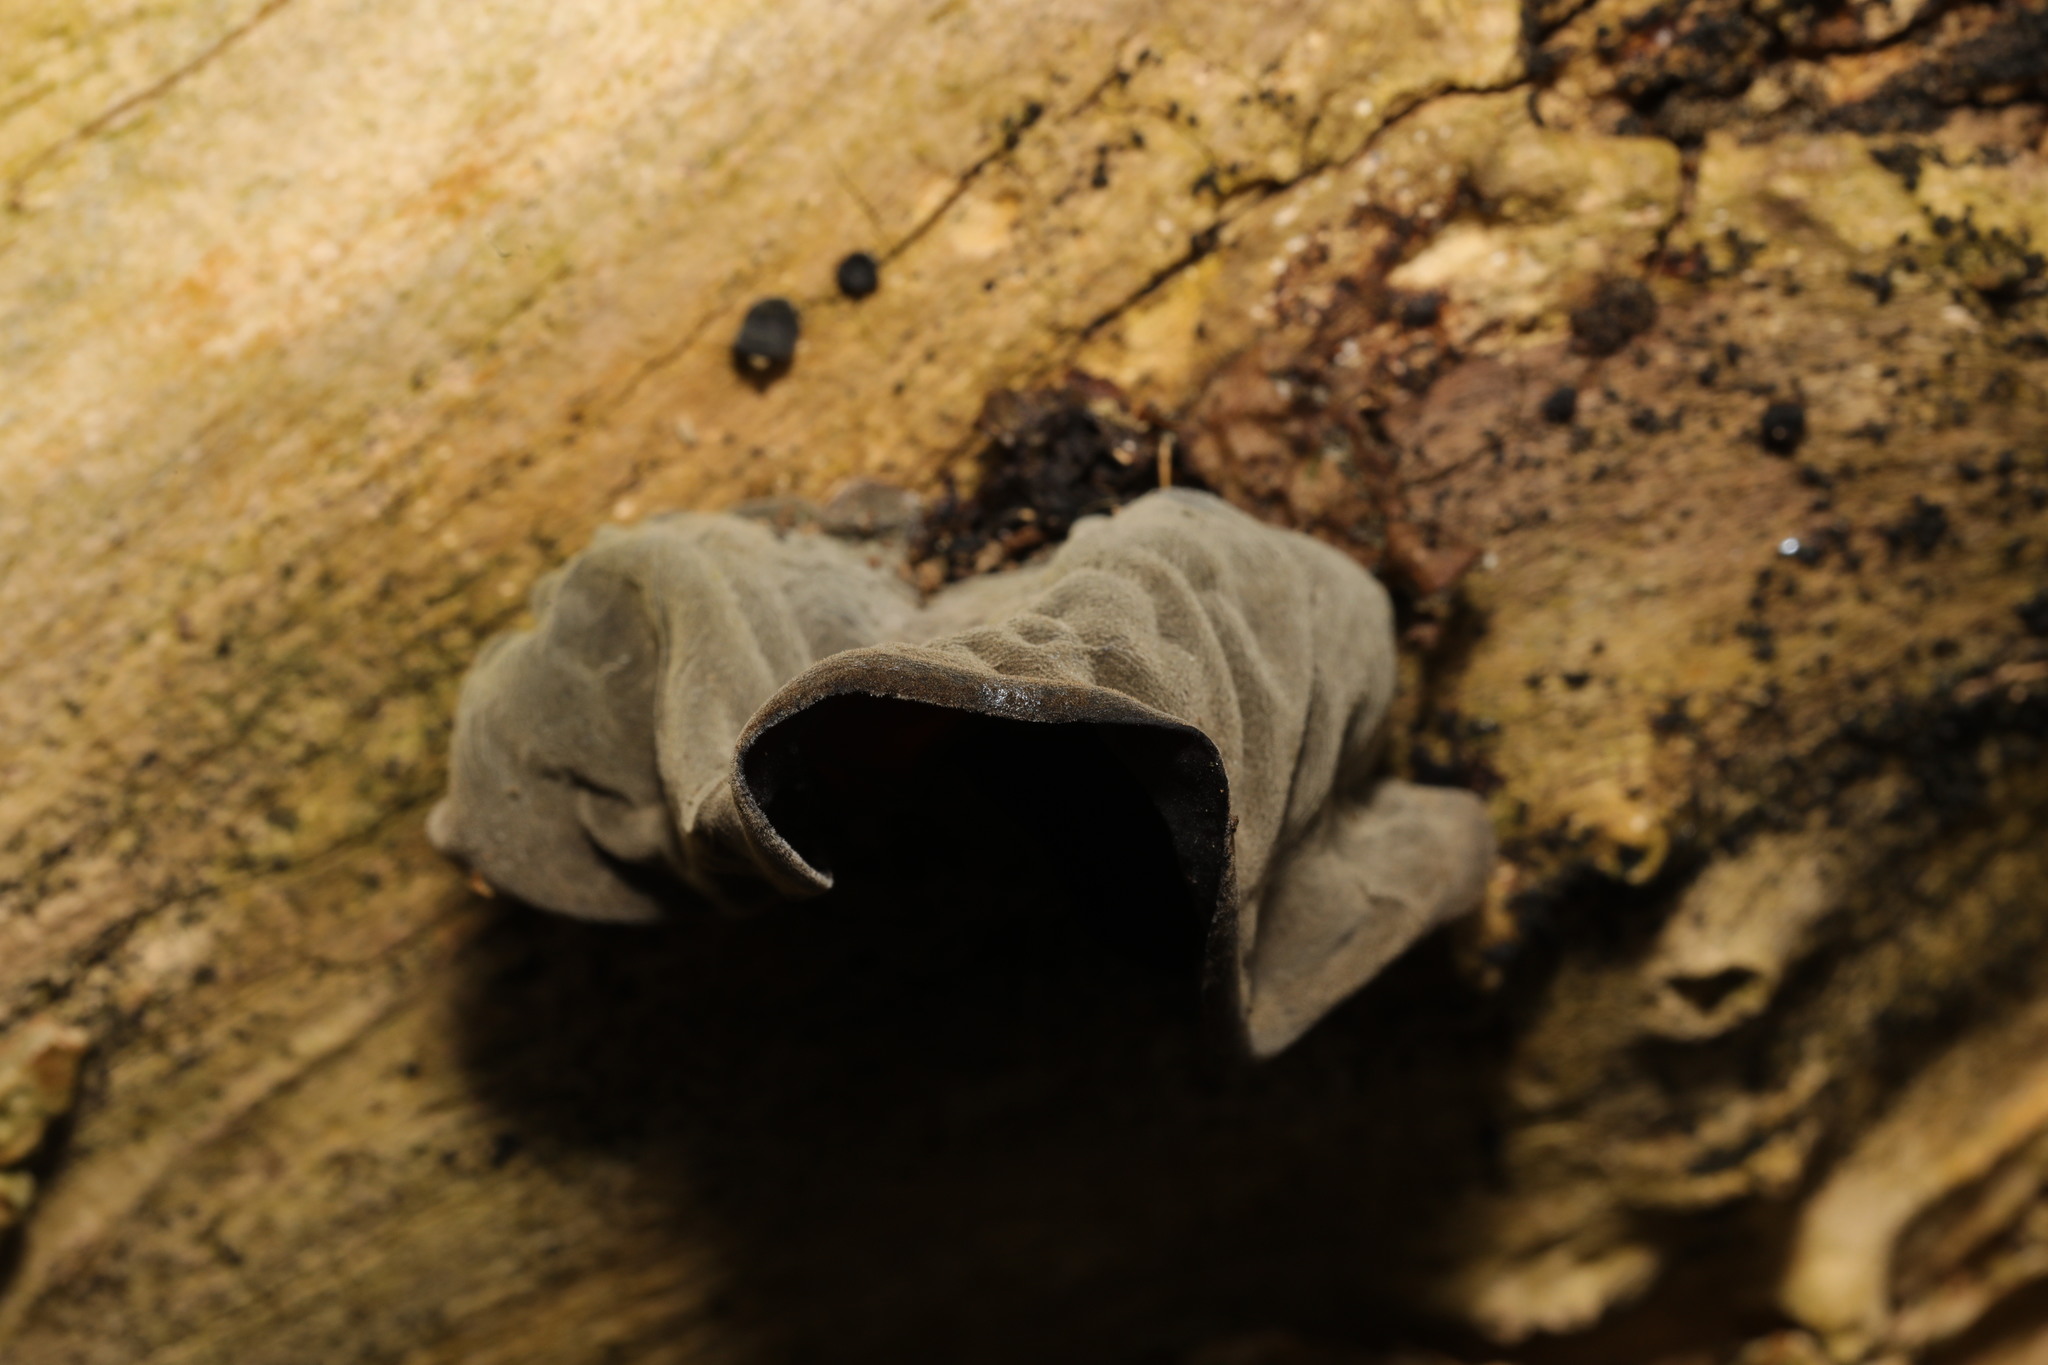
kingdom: Fungi
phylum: Basidiomycota
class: Agaricomycetes
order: Auriculariales
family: Auriculariaceae
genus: Auricularia
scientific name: Auricularia auricula-judae
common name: Jelly ear
